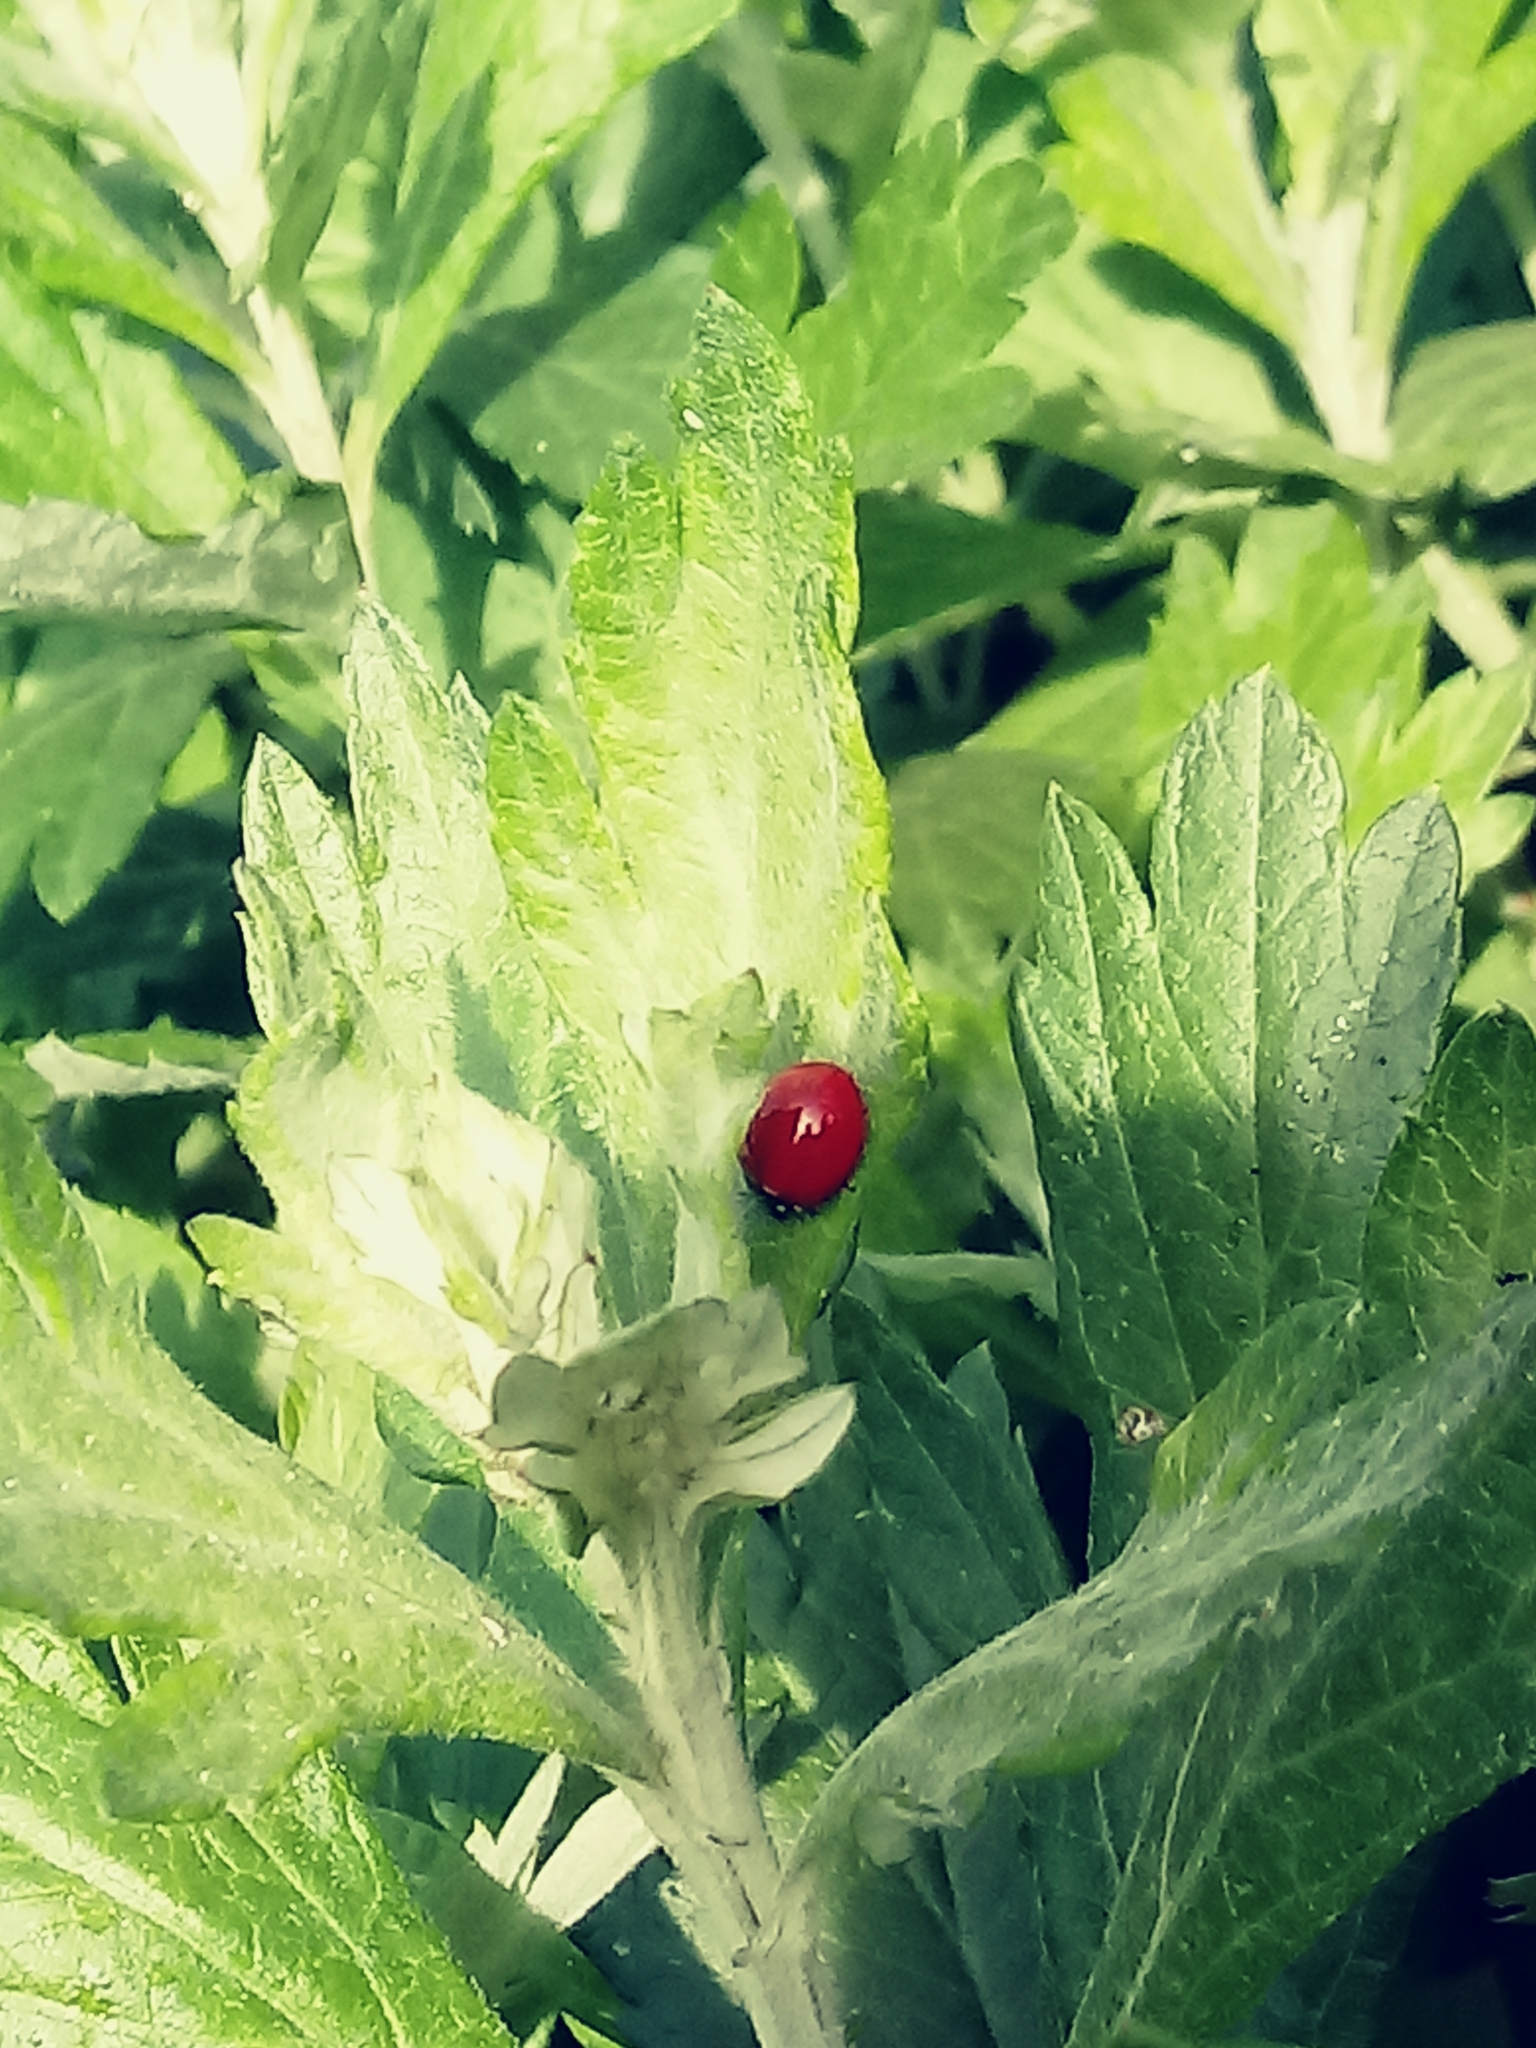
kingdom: Animalia
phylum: Arthropoda
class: Insecta
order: Coleoptera
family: Coccinellidae
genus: Cycloneda
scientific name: Cycloneda sanguinea
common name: Ladybird beetle
